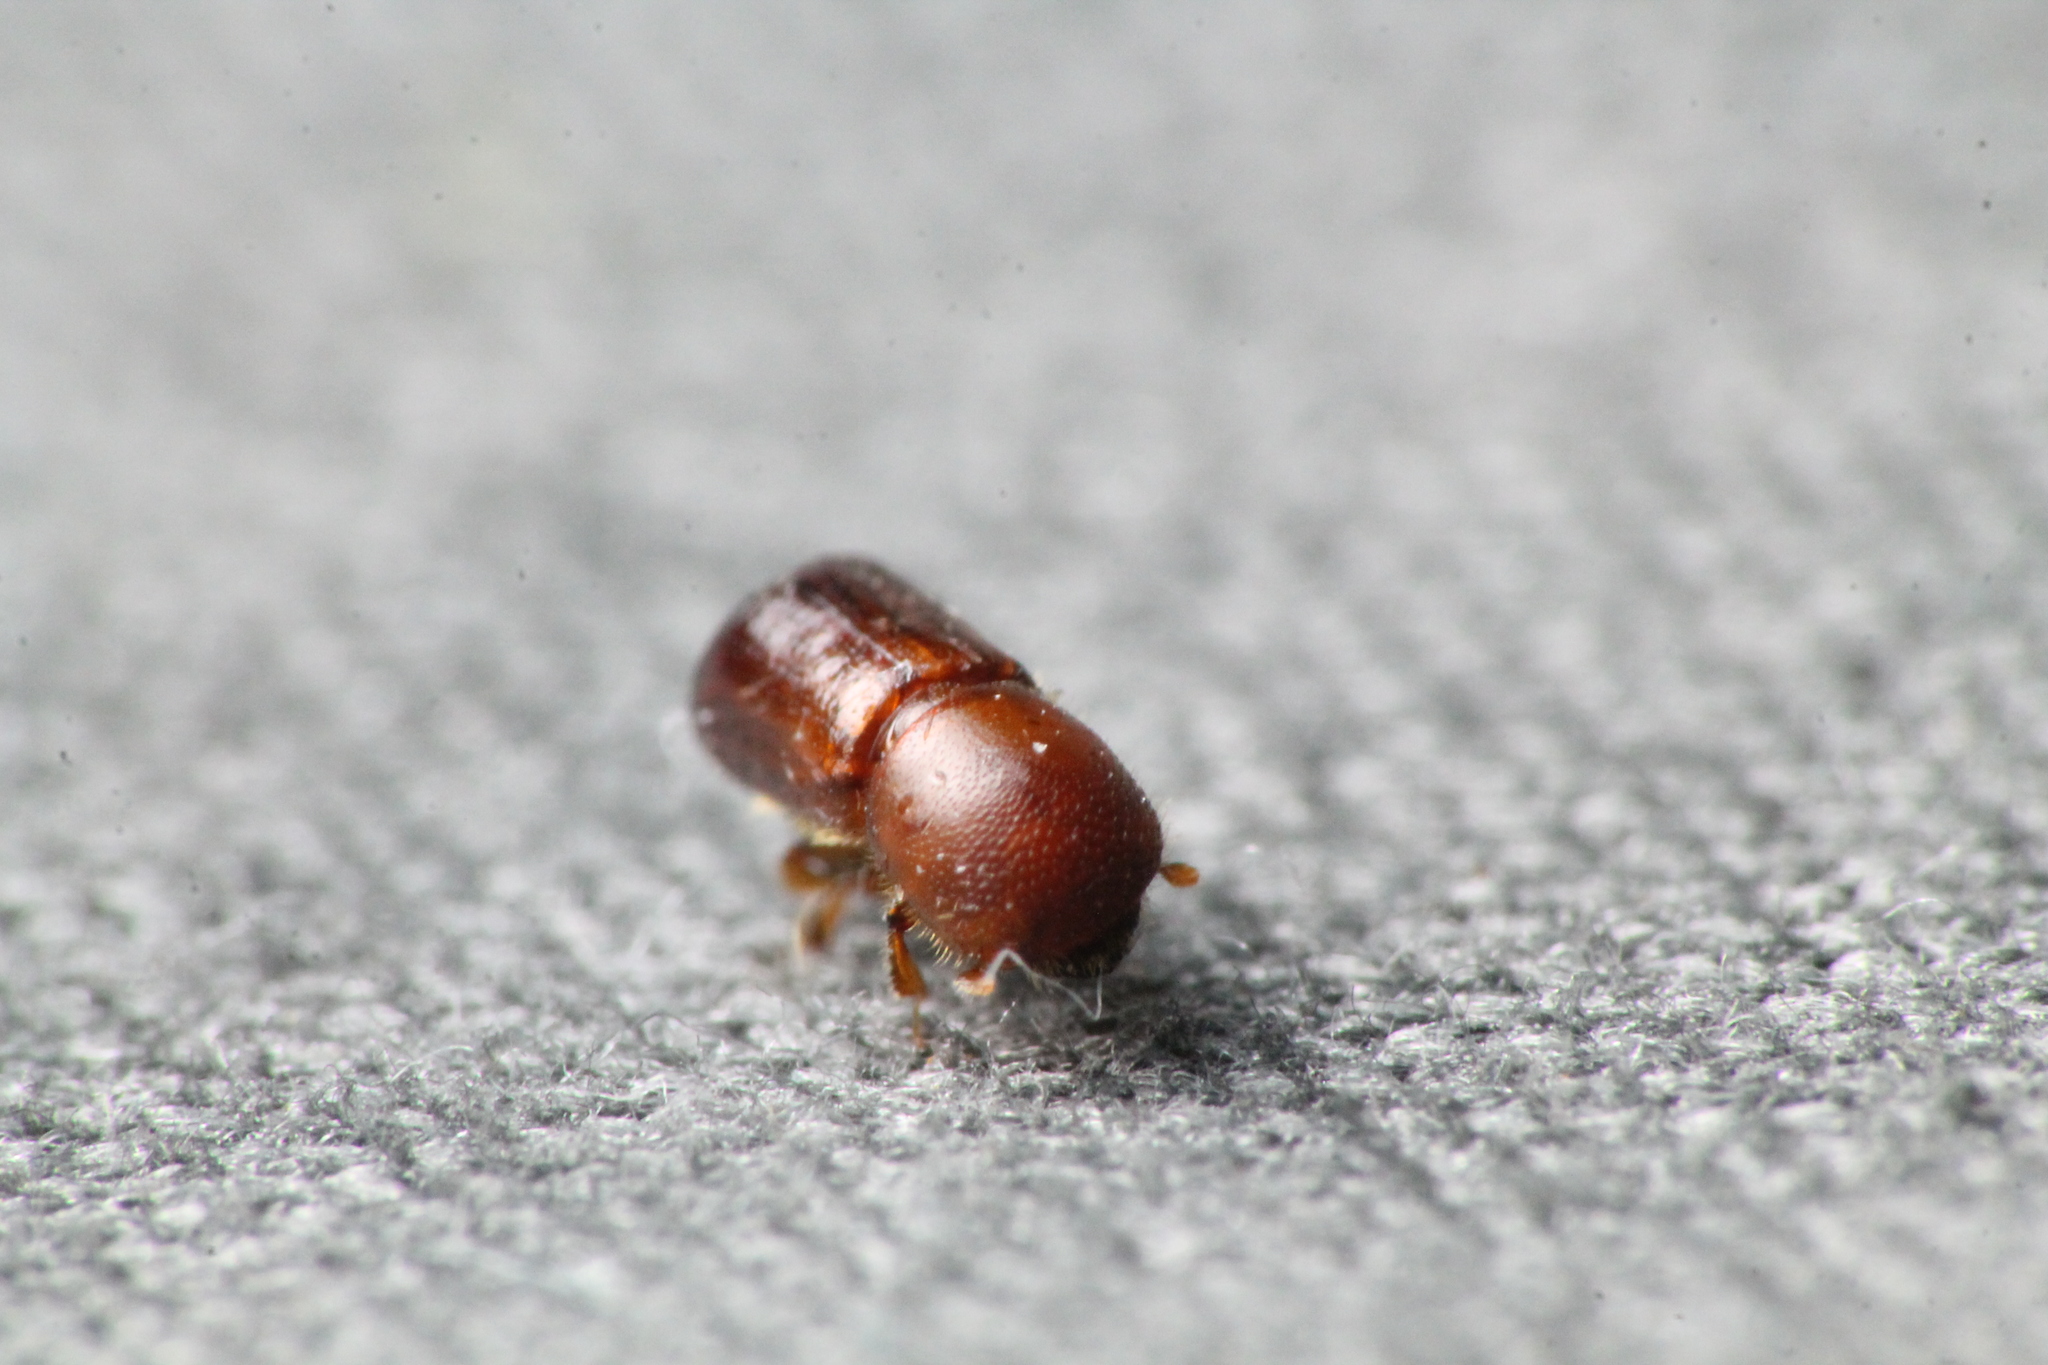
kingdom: Animalia
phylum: Arthropoda
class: Insecta
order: Coleoptera
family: Curculionidae
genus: Amasa
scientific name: Amasa truncatus
